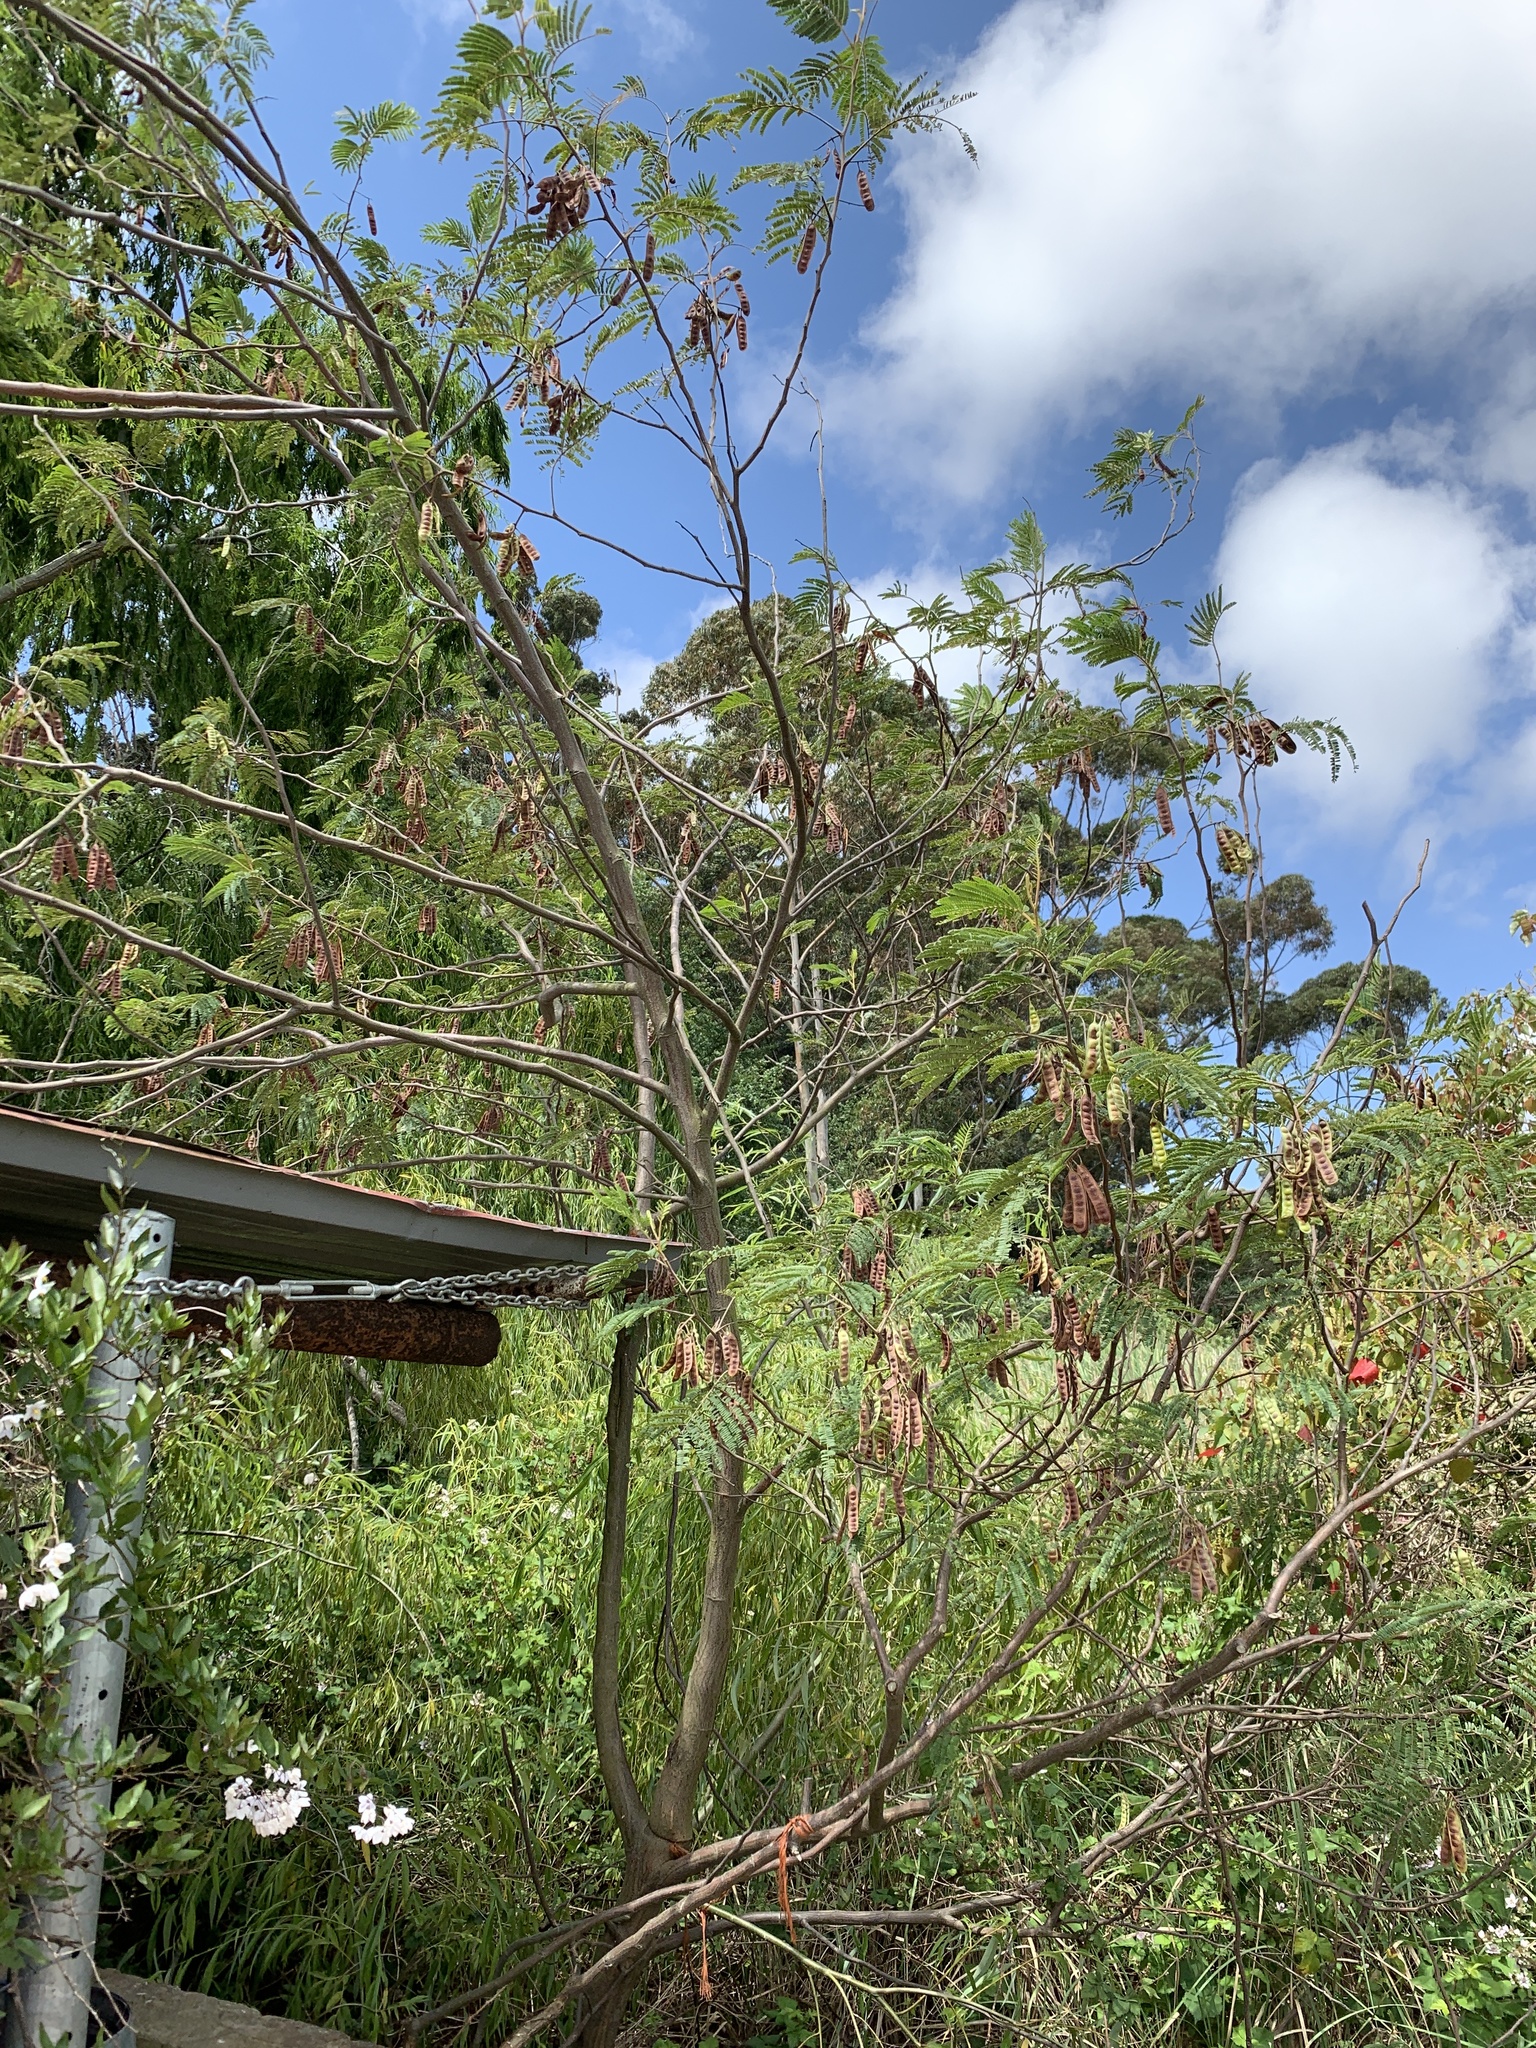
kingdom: Plantae
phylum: Tracheophyta
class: Magnoliopsida
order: Fabales
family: Fabaceae
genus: Paraserianthes
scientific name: Paraserianthes lophantha
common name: Plume albizia
